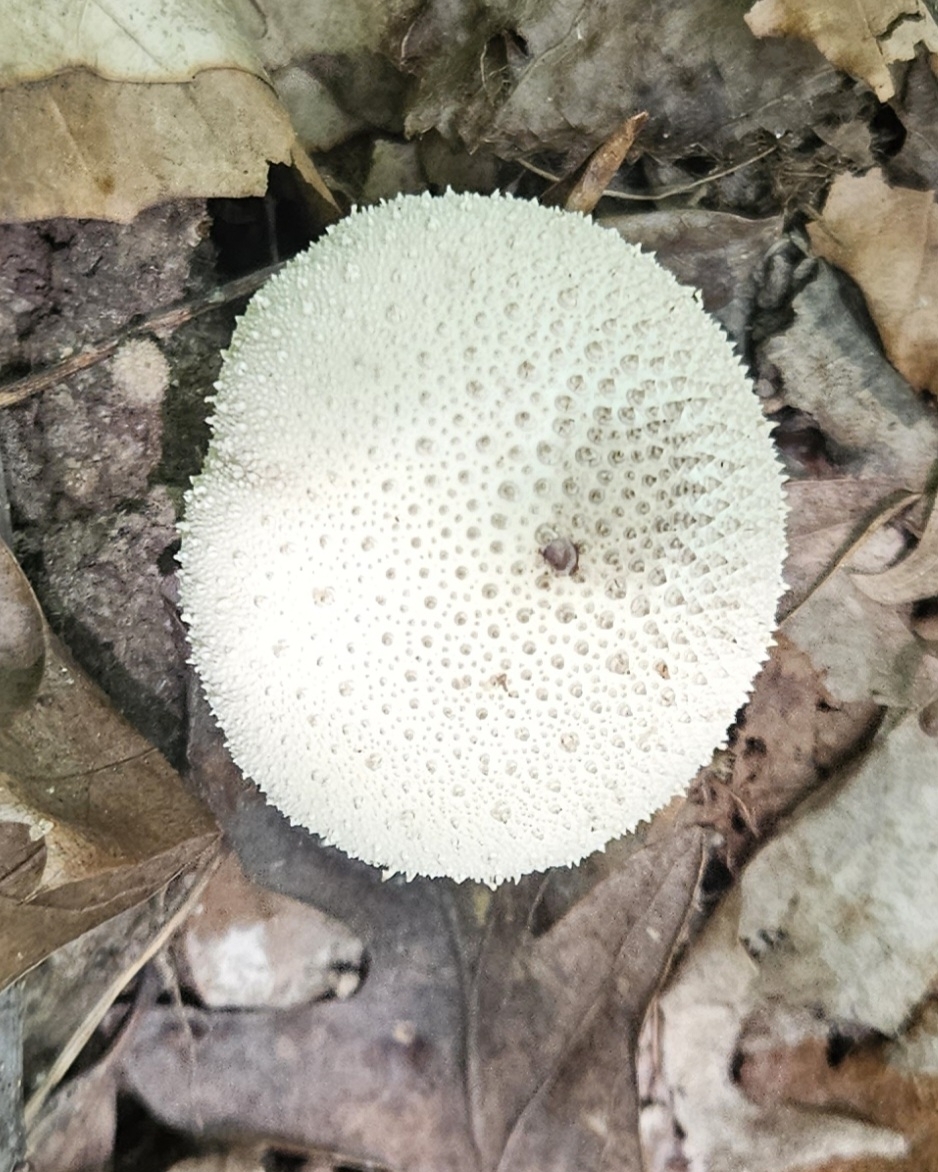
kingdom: Fungi
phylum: Basidiomycota
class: Agaricomycetes
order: Agaricales
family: Lycoperdaceae
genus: Lycoperdon
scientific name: Lycoperdon perlatum
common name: Common puffball
